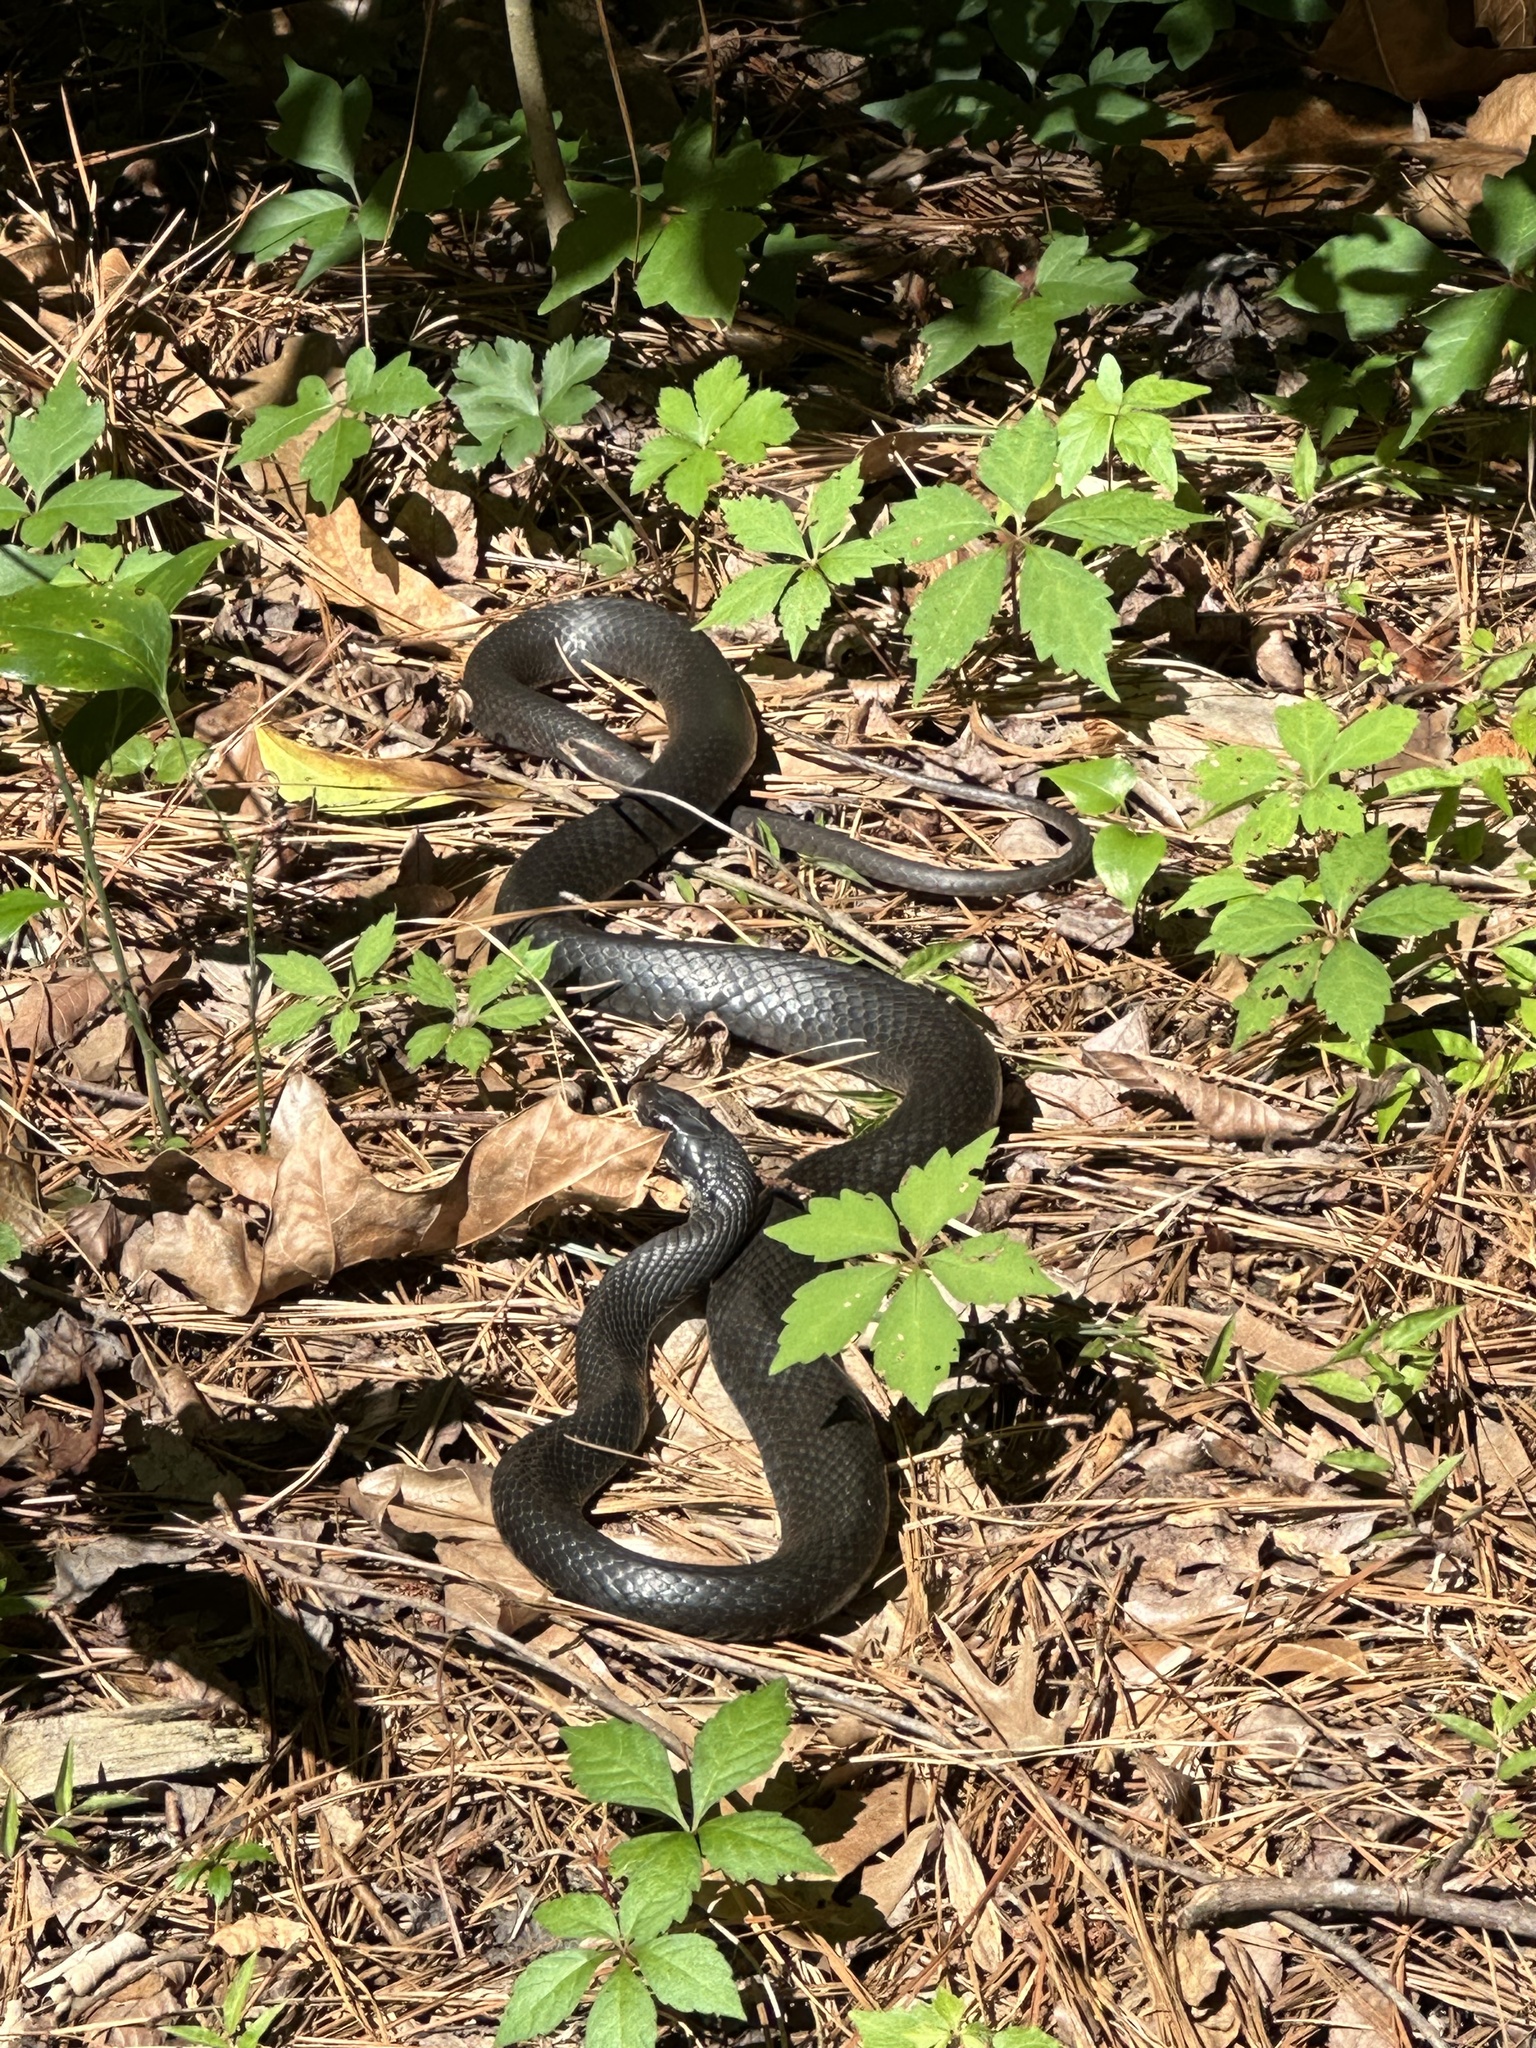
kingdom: Animalia
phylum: Chordata
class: Squamata
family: Colubridae
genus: Coluber
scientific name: Coluber constrictor
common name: Eastern racer
